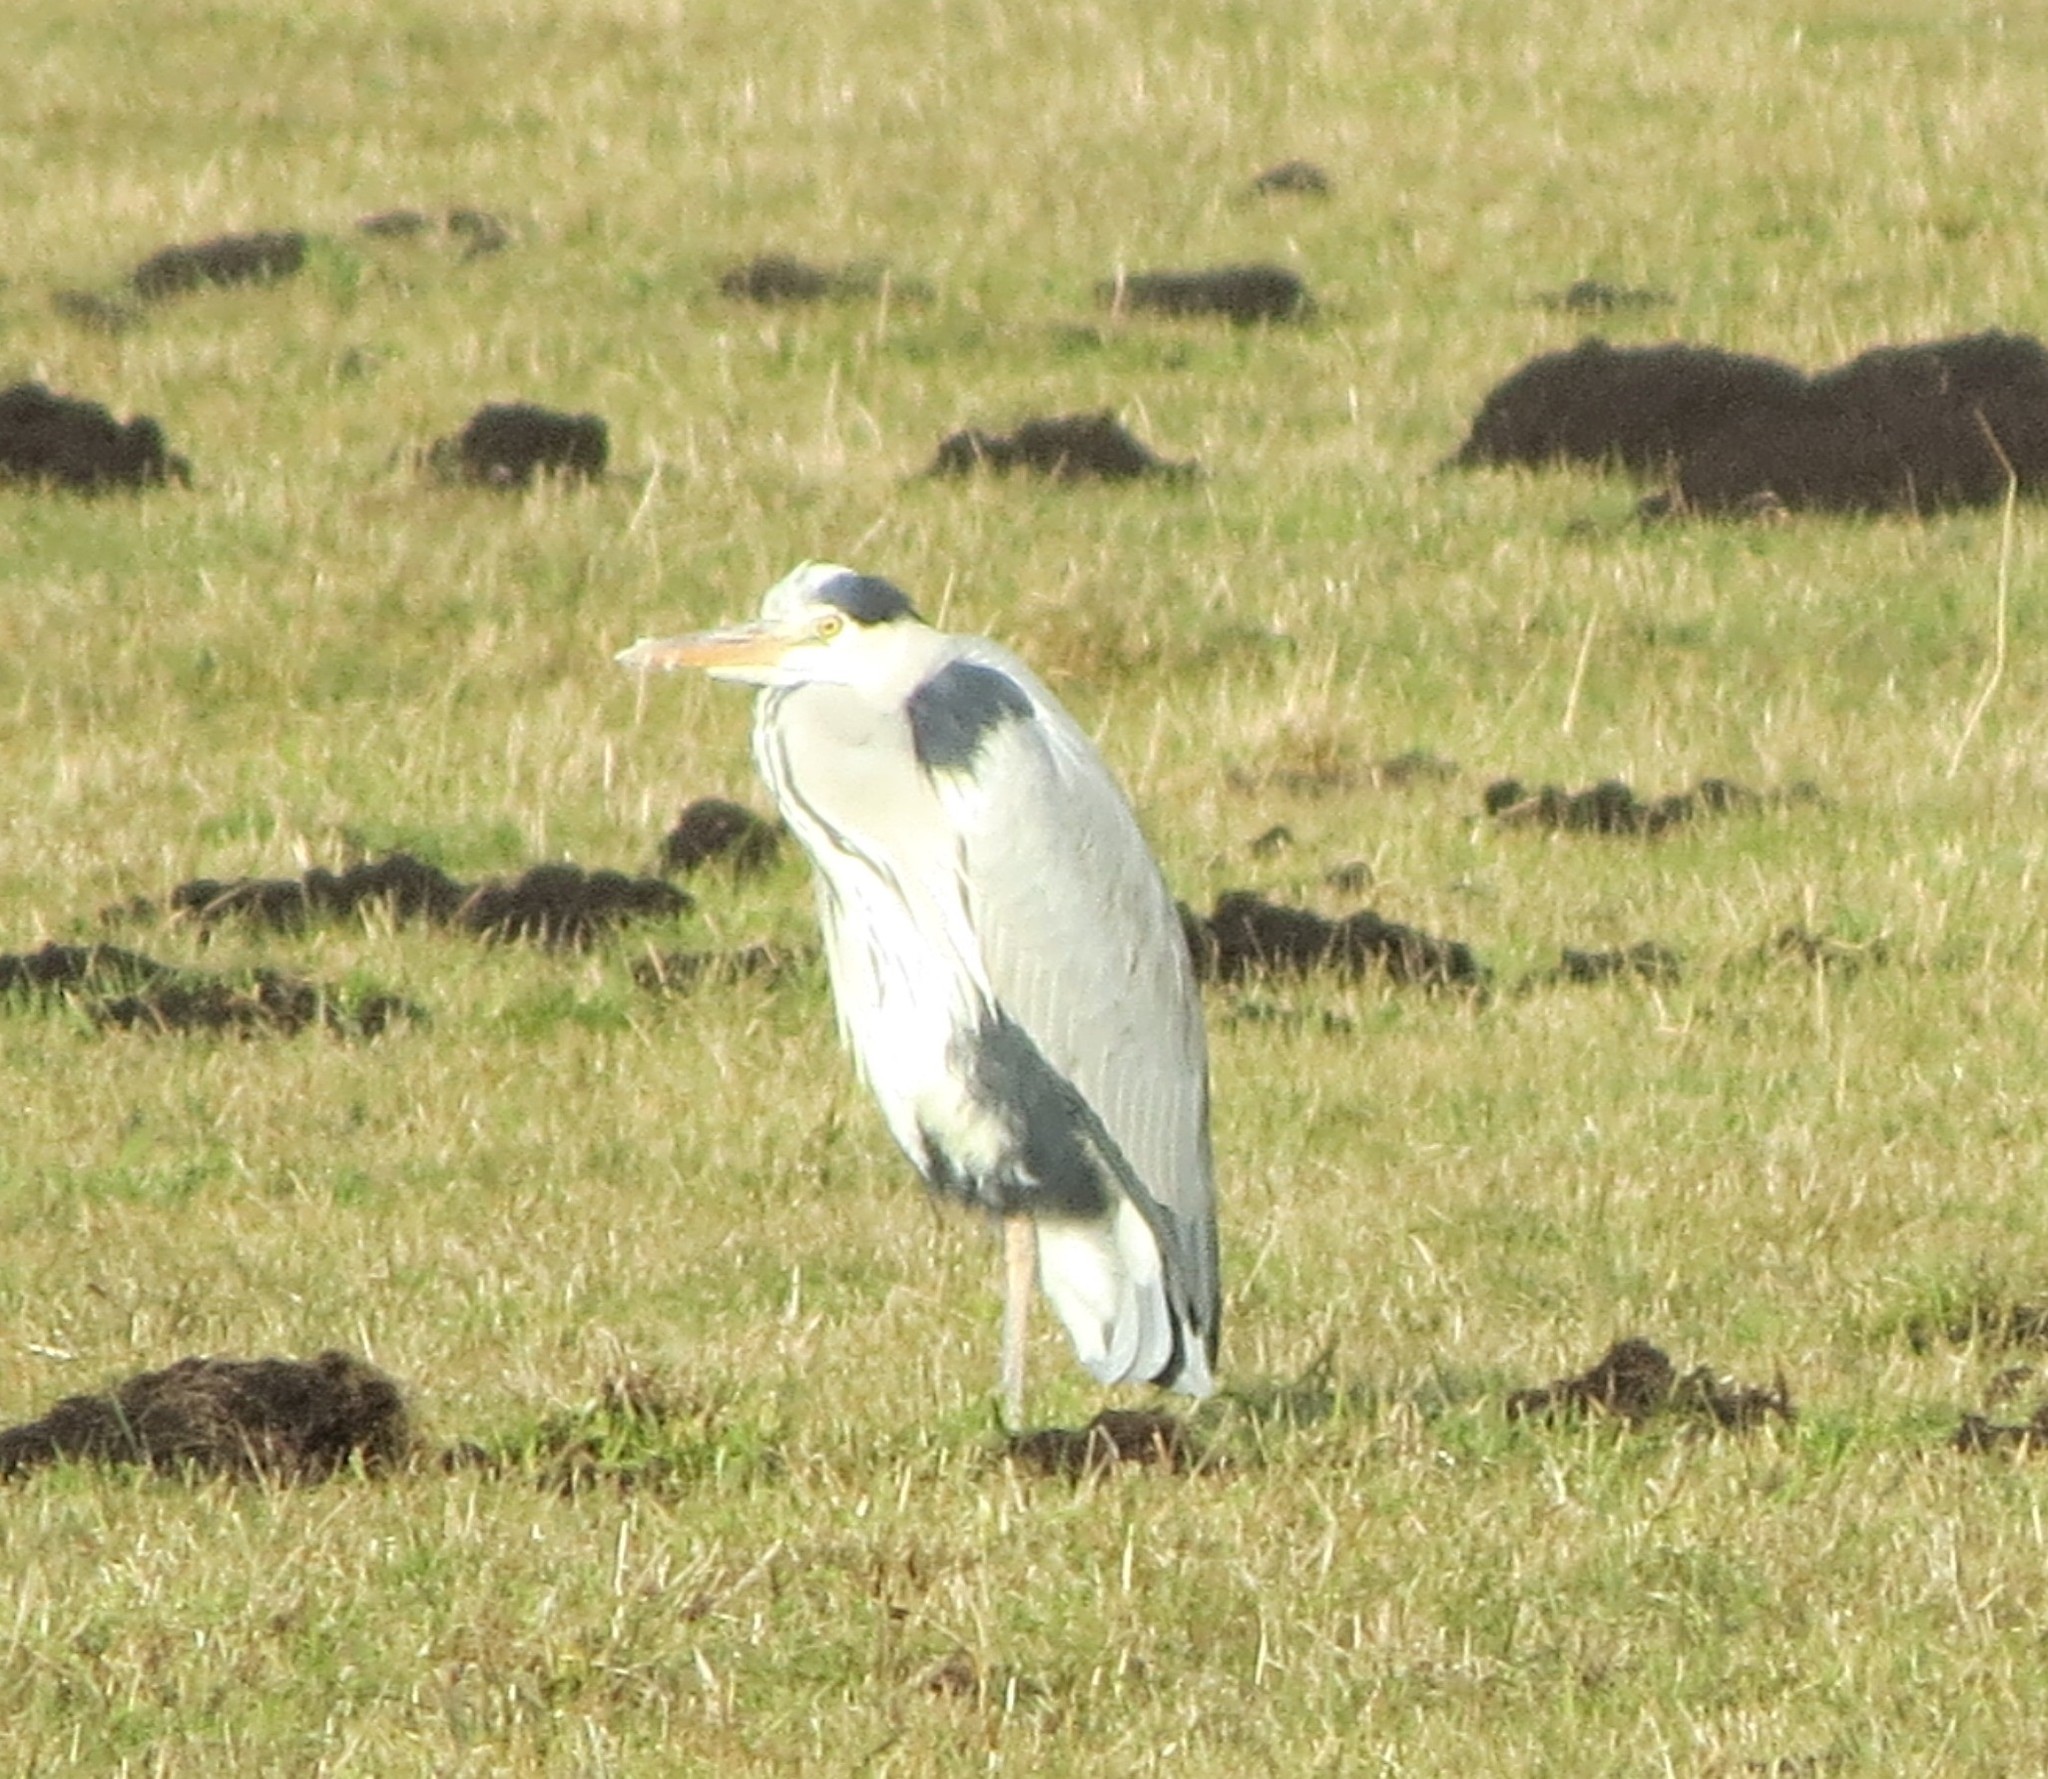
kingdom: Animalia
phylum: Chordata
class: Aves
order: Pelecaniformes
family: Ardeidae
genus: Ardea
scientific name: Ardea cinerea
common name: Grey heron
